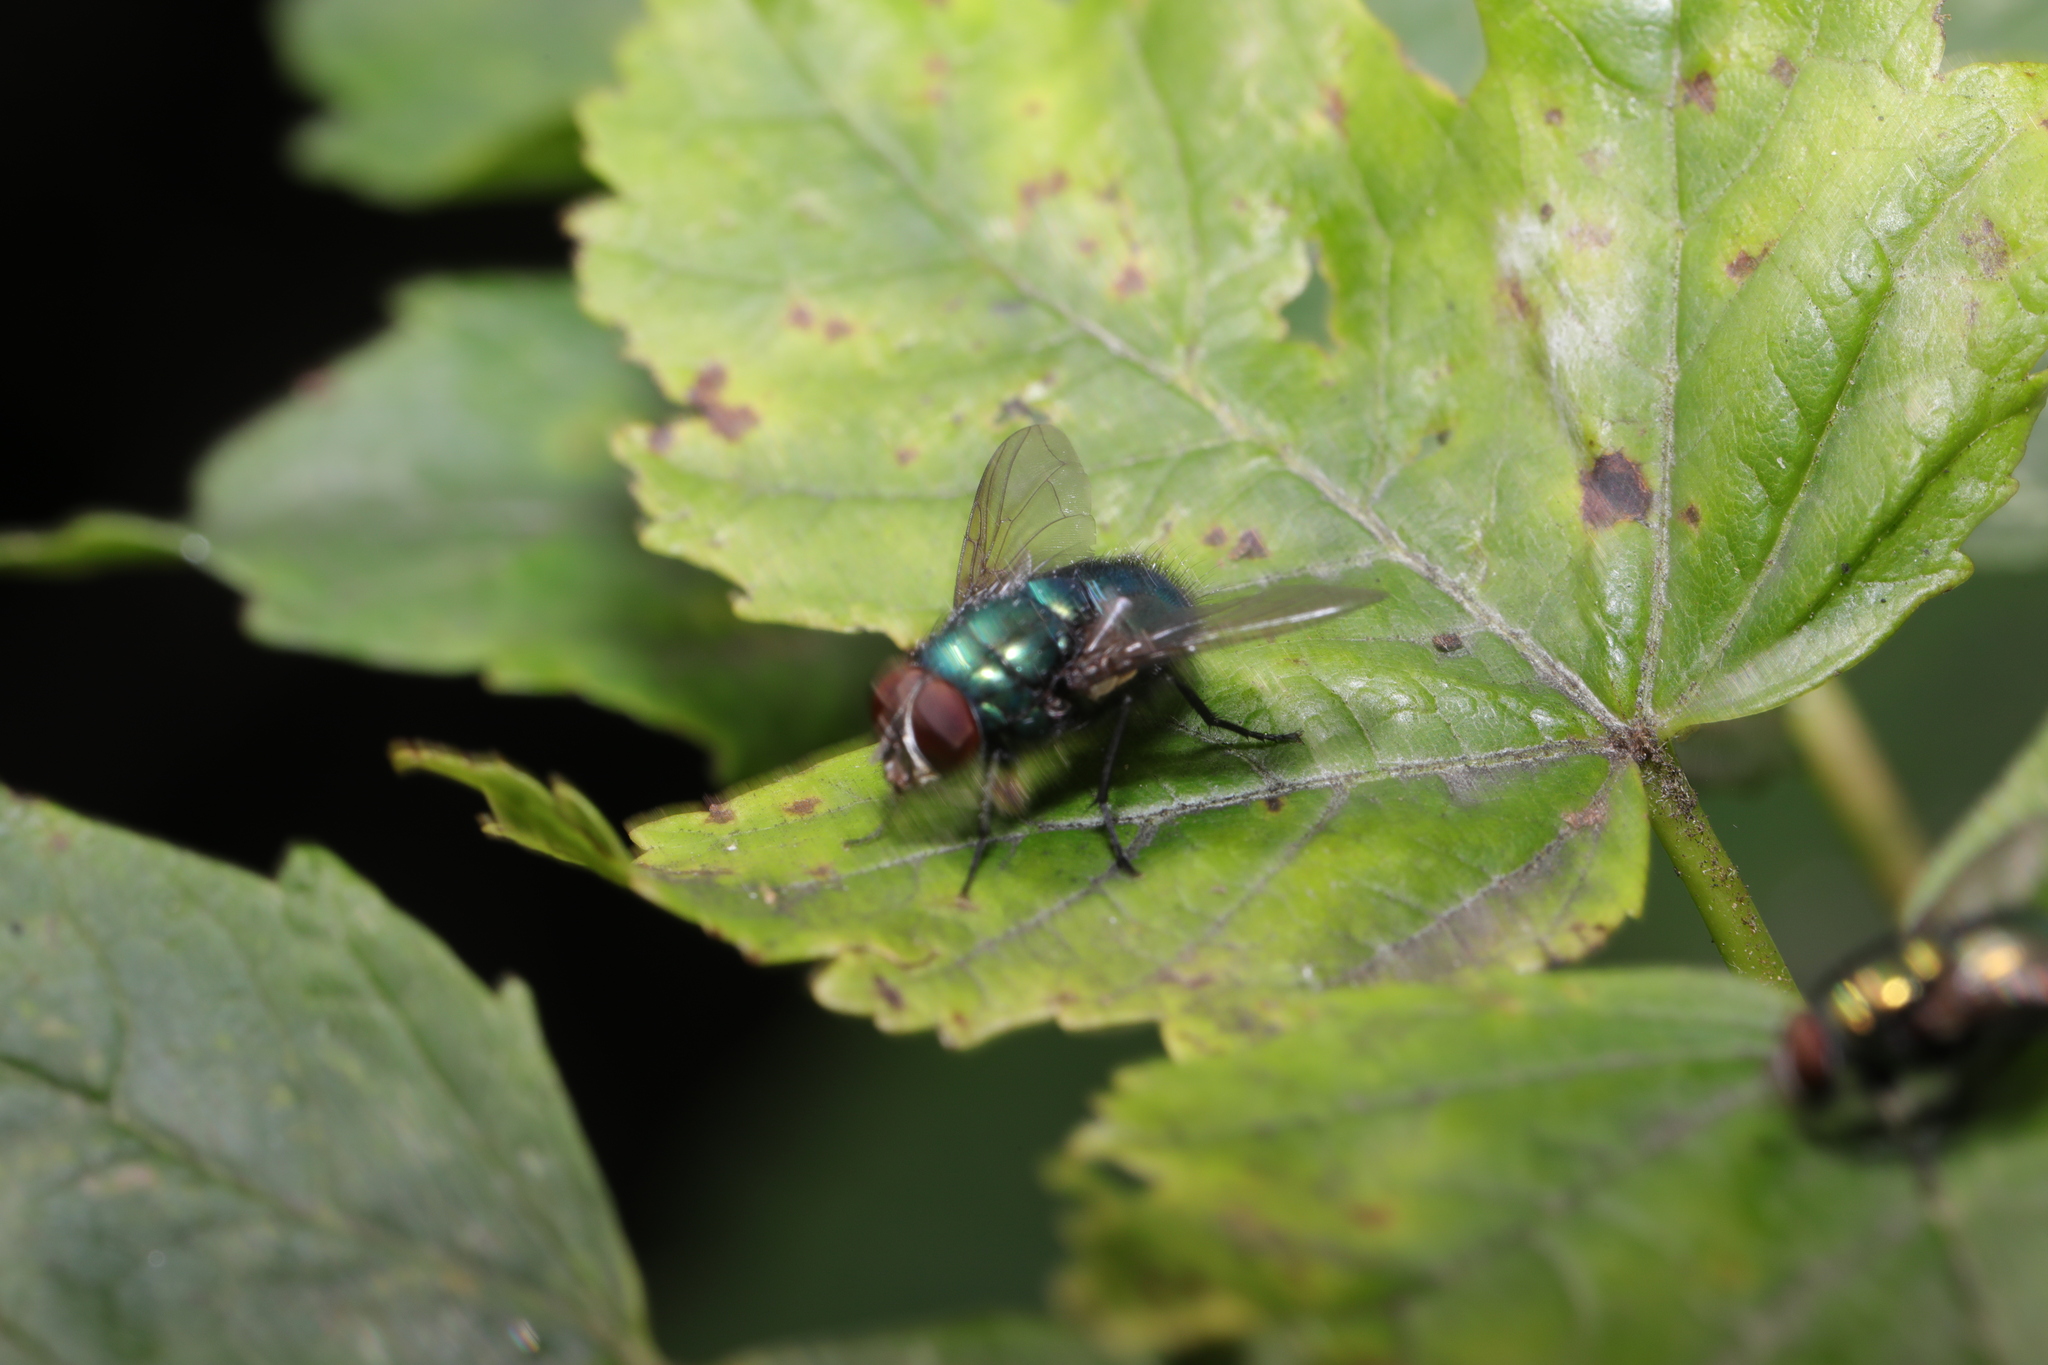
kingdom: Animalia
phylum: Arthropoda
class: Insecta
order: Diptera
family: Calliphoridae
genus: Lucilia
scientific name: Lucilia
